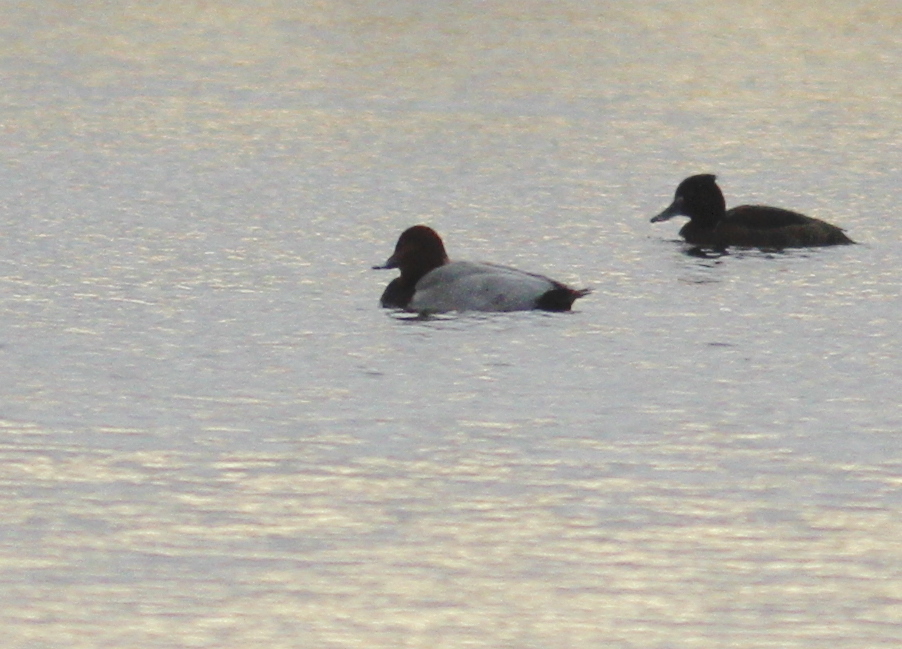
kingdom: Animalia
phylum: Chordata
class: Aves
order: Anseriformes
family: Anatidae
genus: Aythya
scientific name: Aythya ferina
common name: Common pochard
